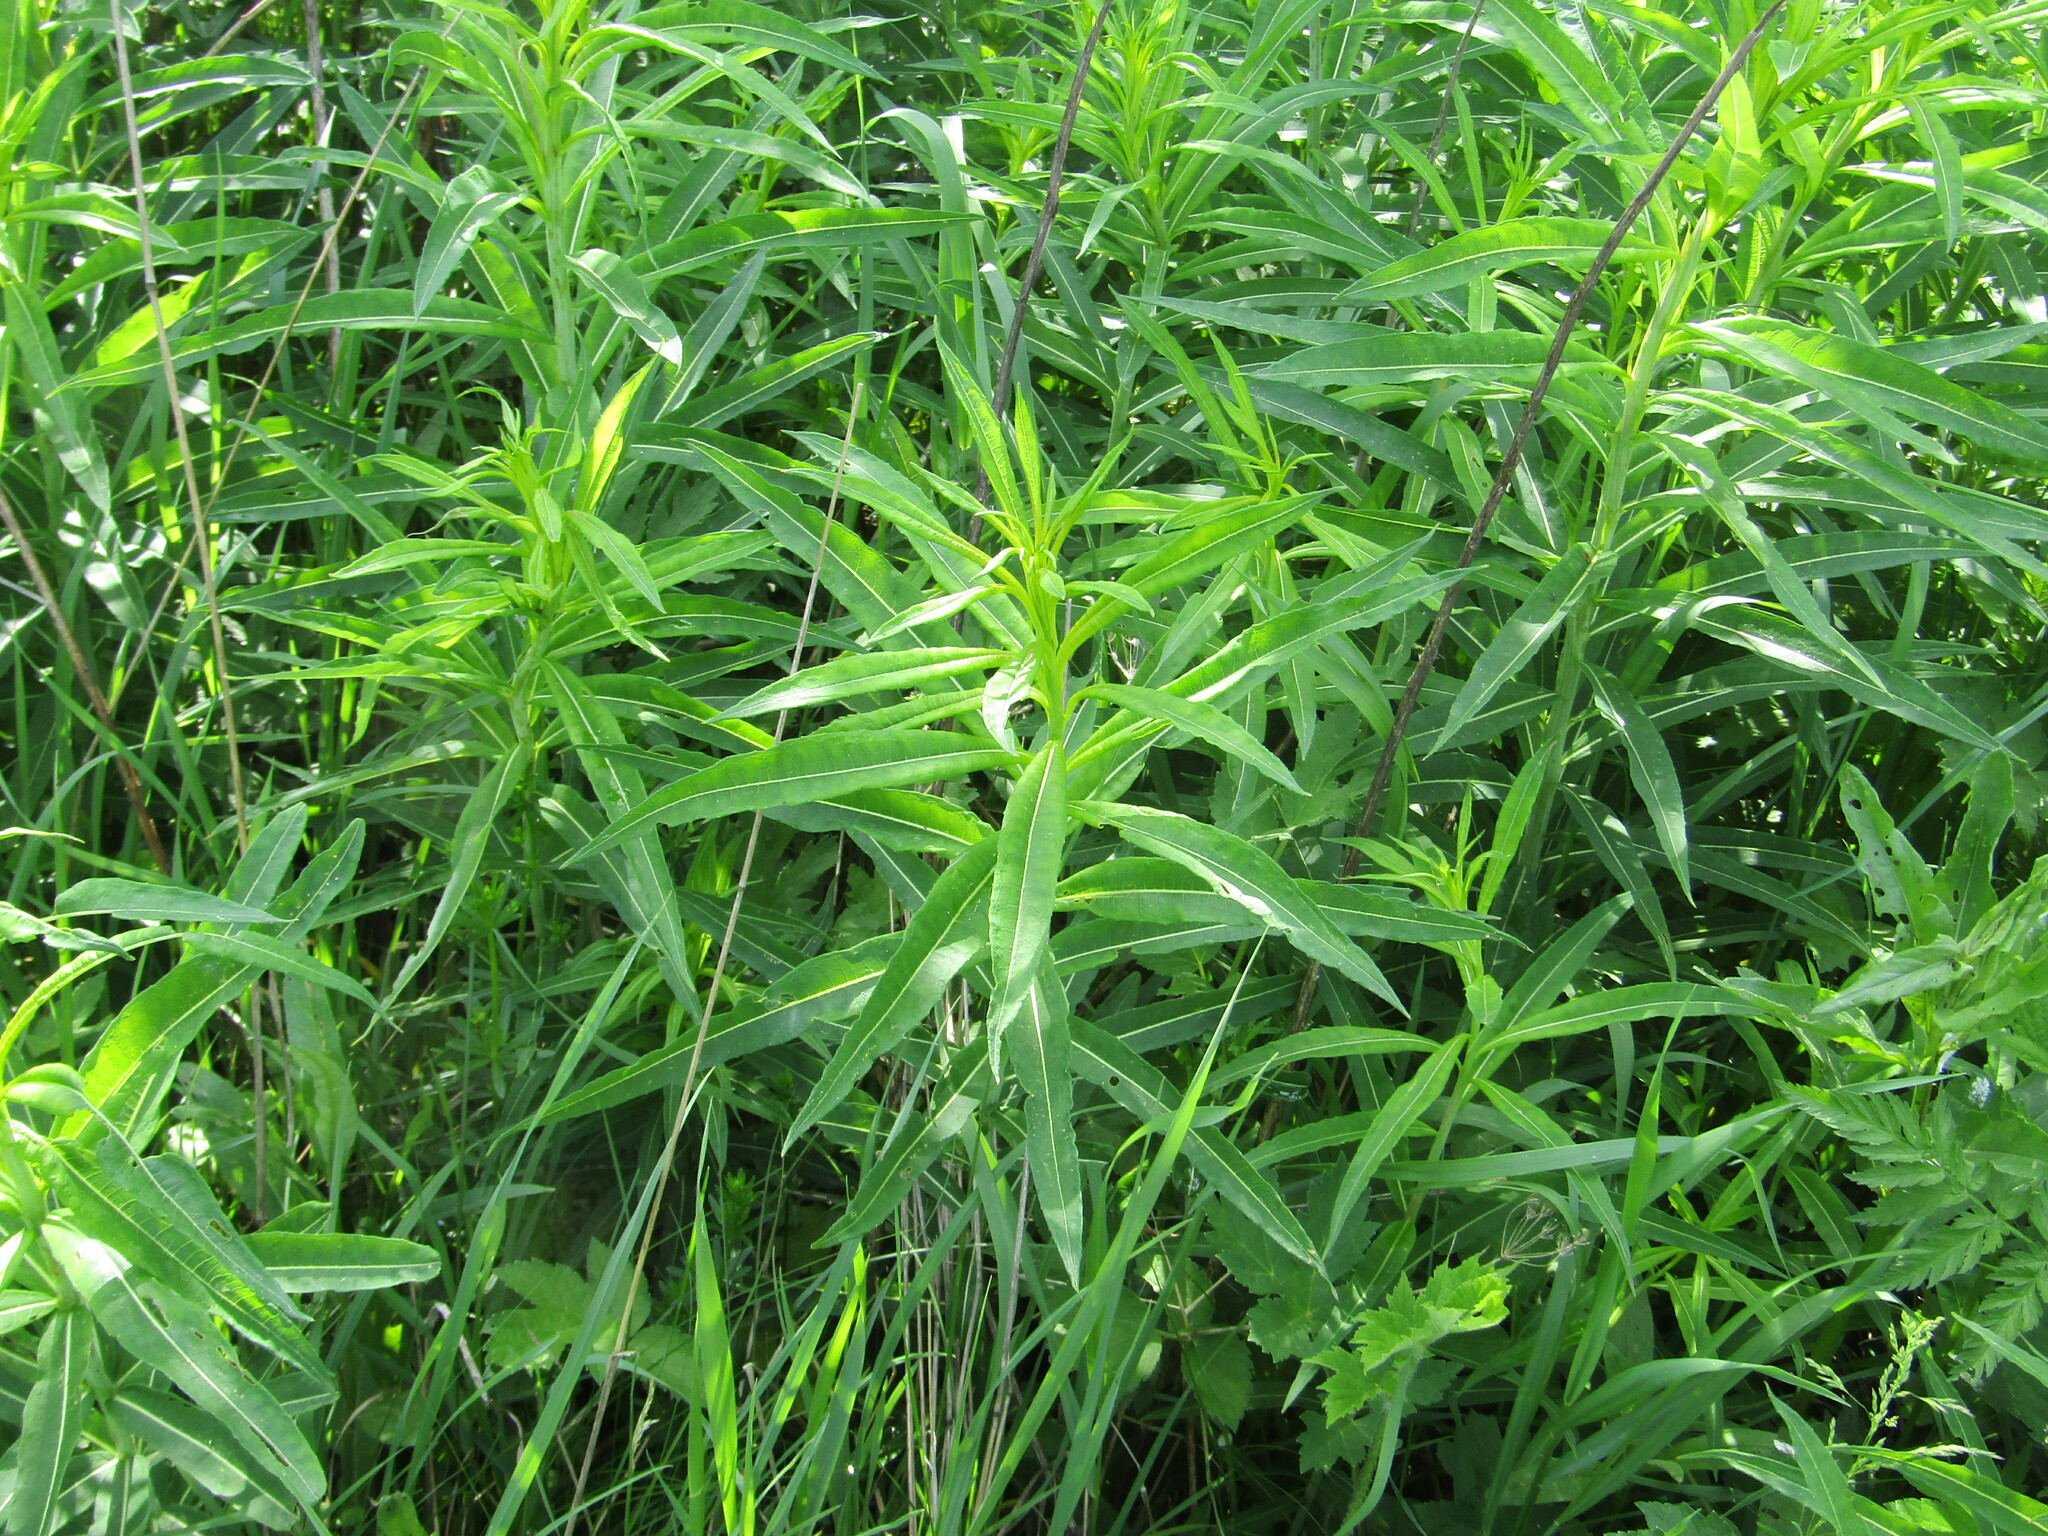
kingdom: Plantae
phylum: Tracheophyta
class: Magnoliopsida
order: Myrtales
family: Onagraceae
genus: Chamaenerion
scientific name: Chamaenerion angustifolium
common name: Fireweed
